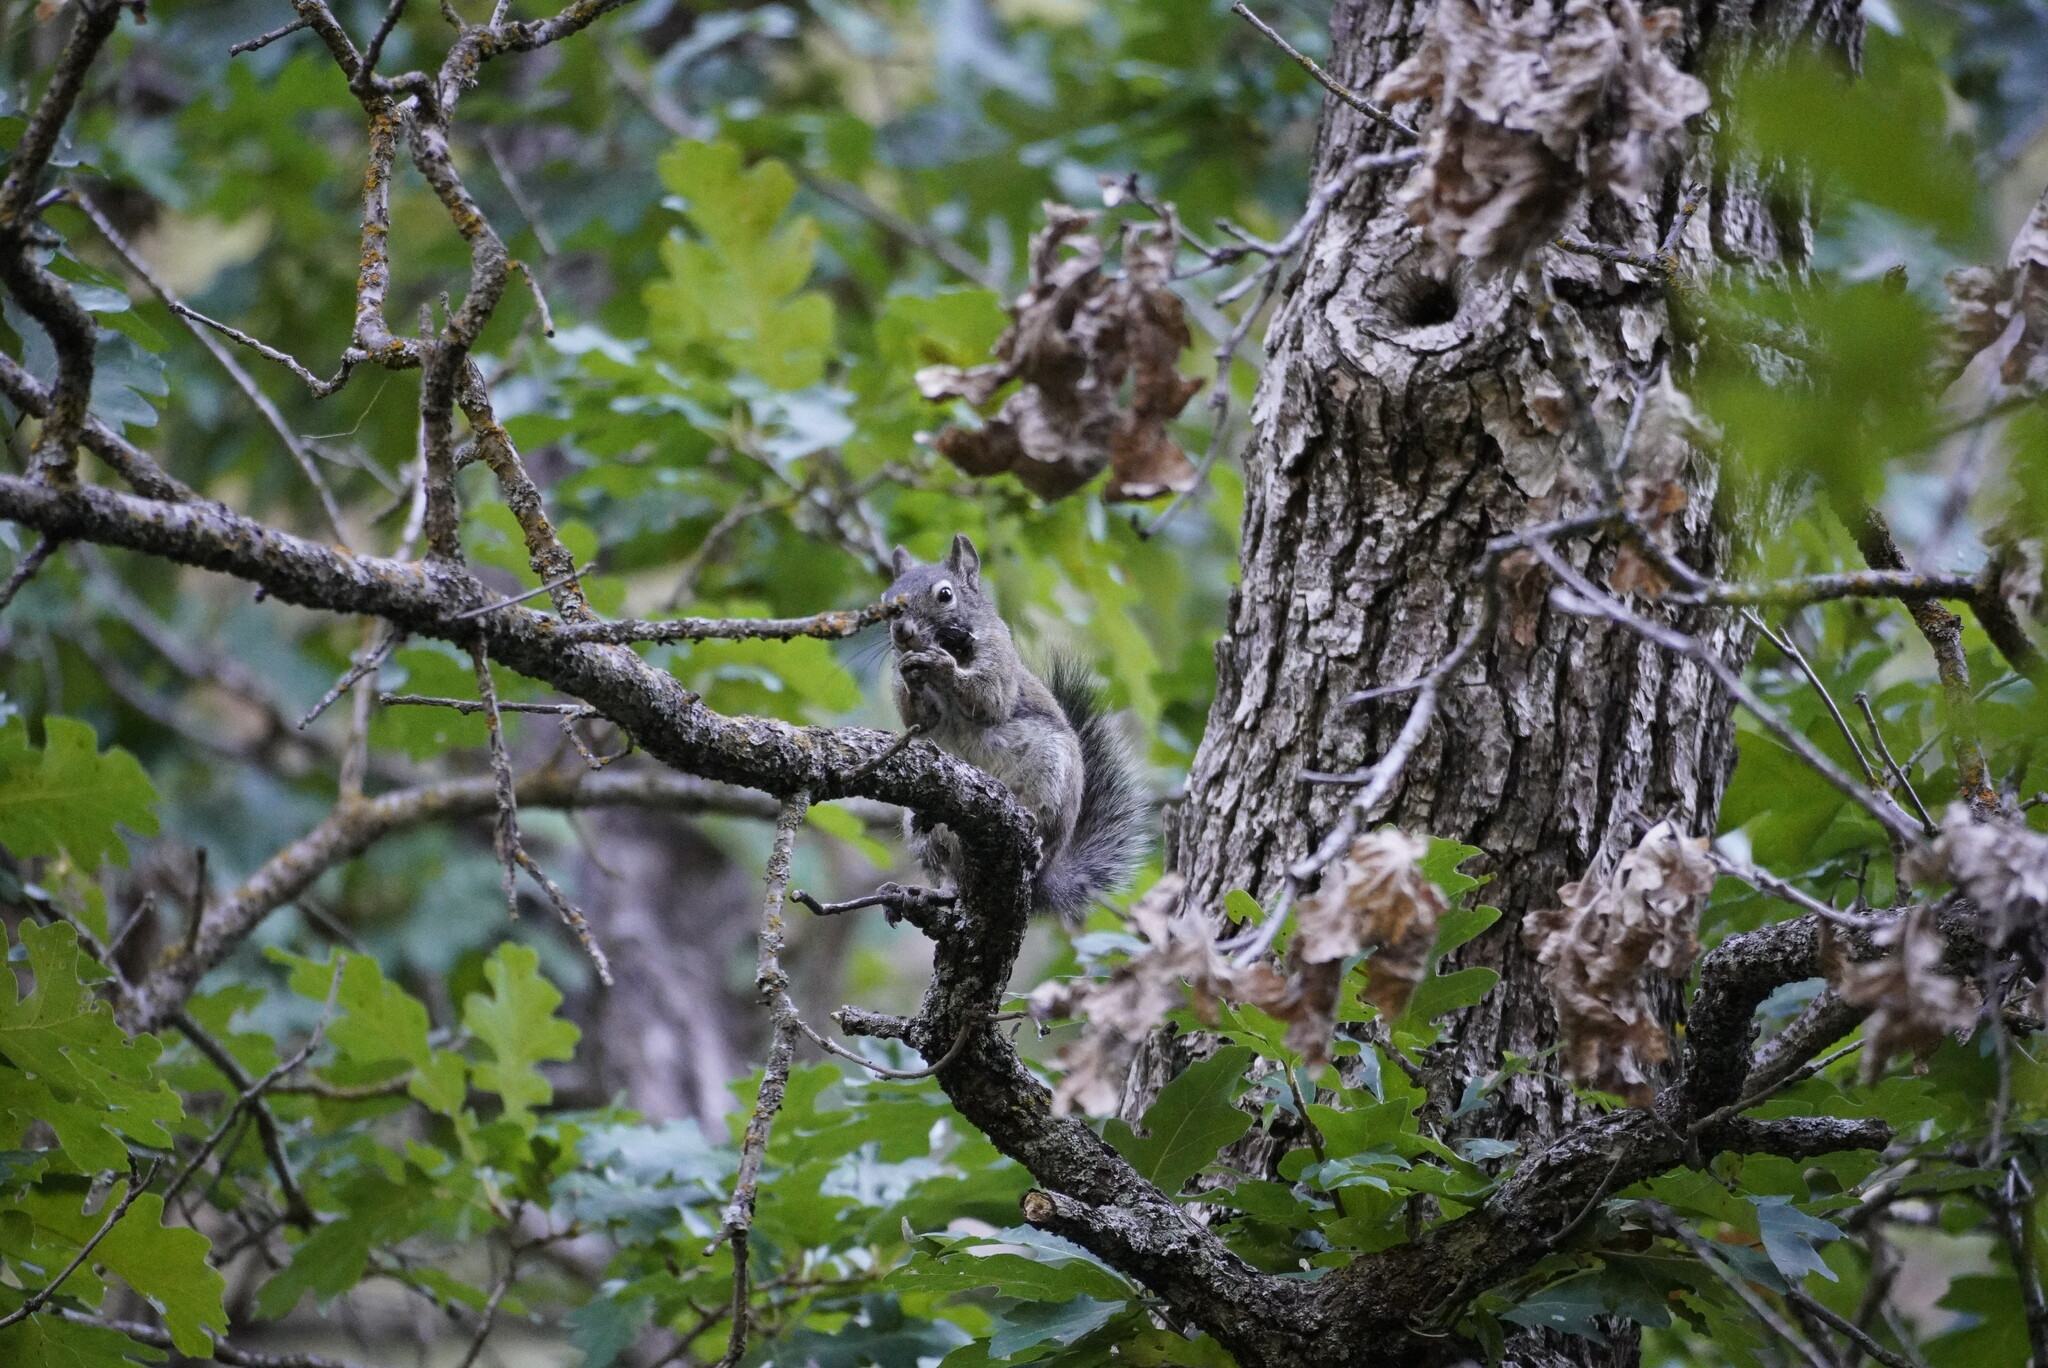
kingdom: Animalia
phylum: Chordata
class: Mammalia
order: Rodentia
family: Sciuridae
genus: Sciurus
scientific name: Sciurus arizonensis
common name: Arizona gray squirrel
